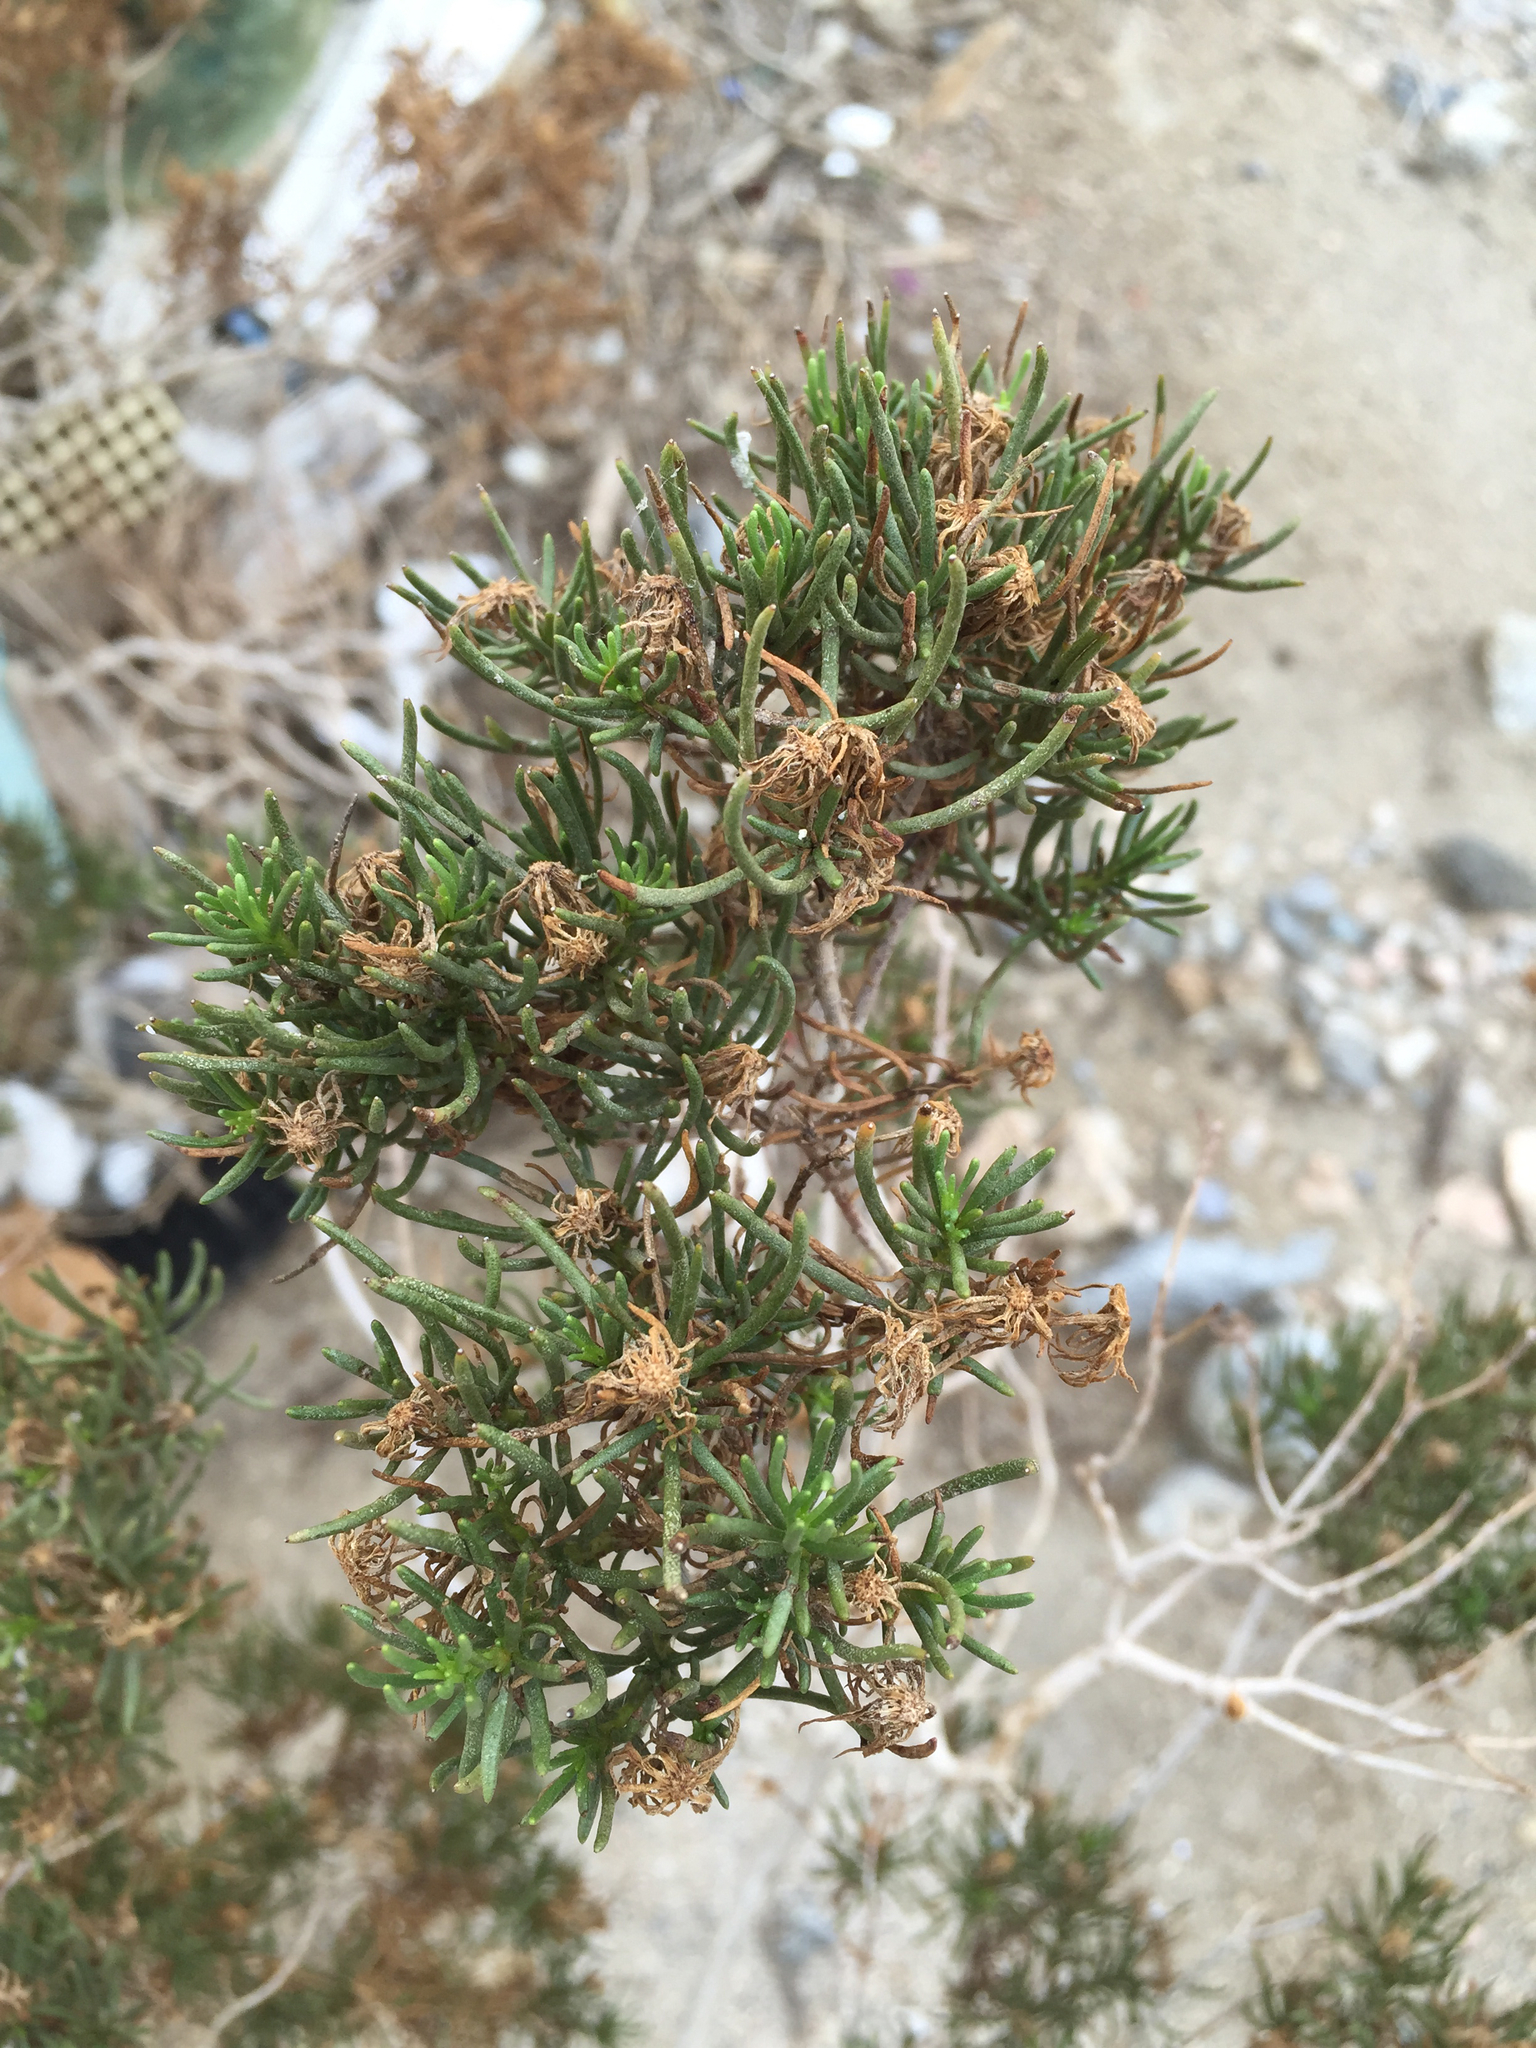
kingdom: Plantae
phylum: Tracheophyta
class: Magnoliopsida
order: Asterales
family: Asteraceae
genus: Peucephyllum
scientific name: Peucephyllum schottii
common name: Pygmy-cedar
